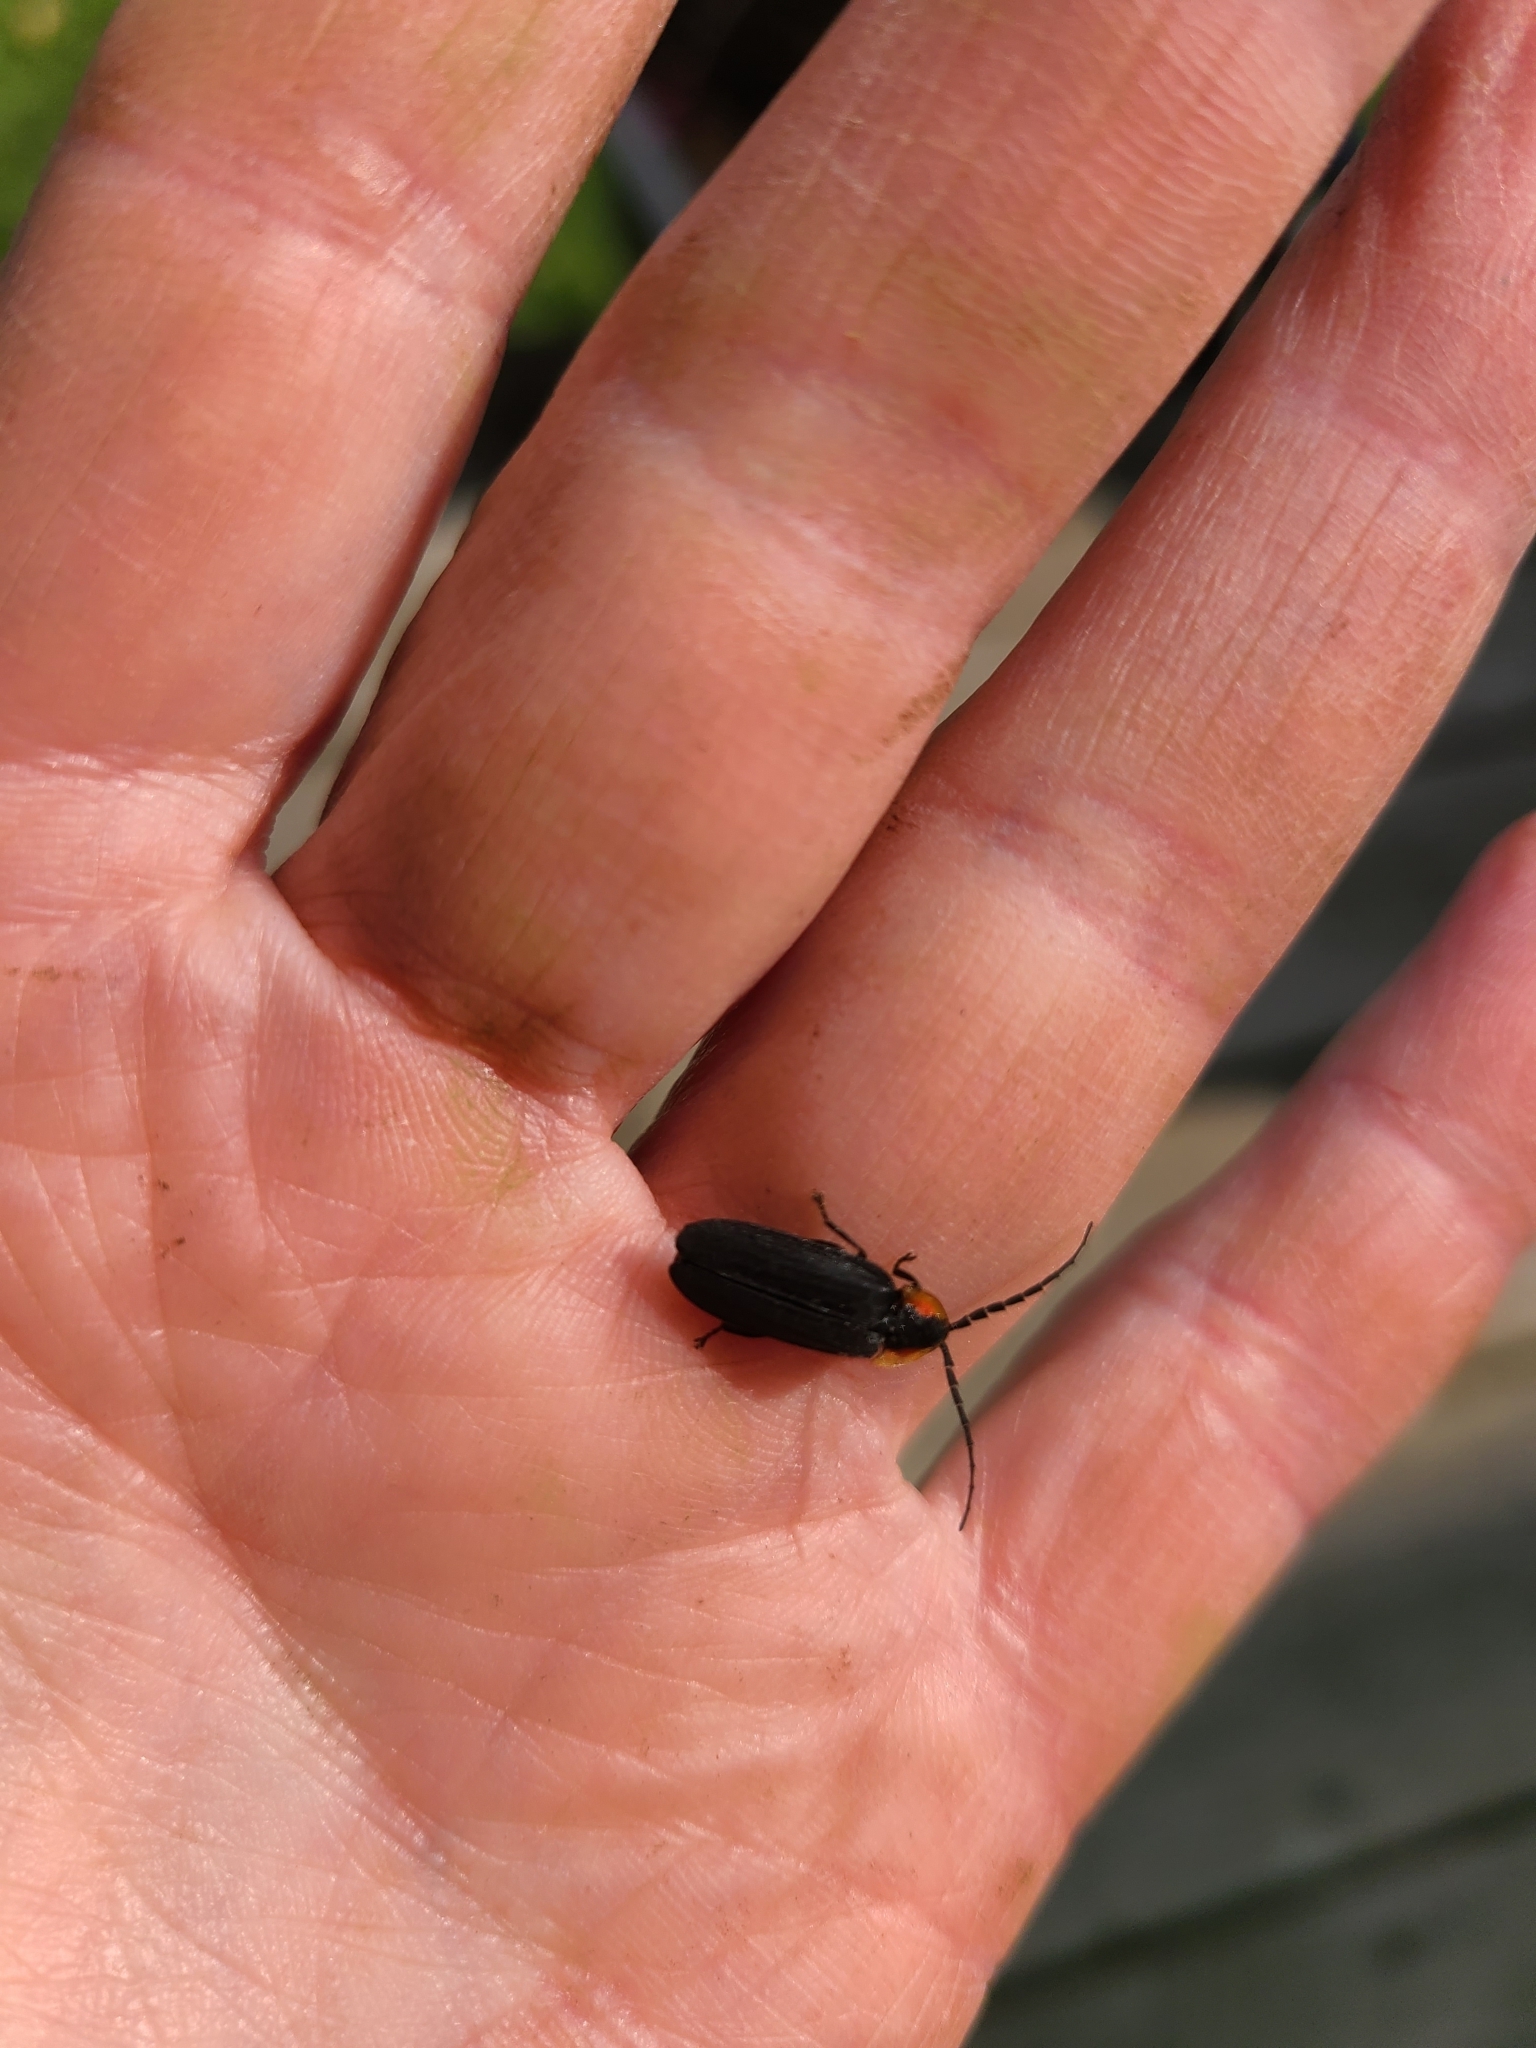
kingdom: Animalia
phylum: Arthropoda
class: Insecta
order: Coleoptera
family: Lampyridae
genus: Lucidota
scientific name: Lucidota atra
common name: Black firefly
